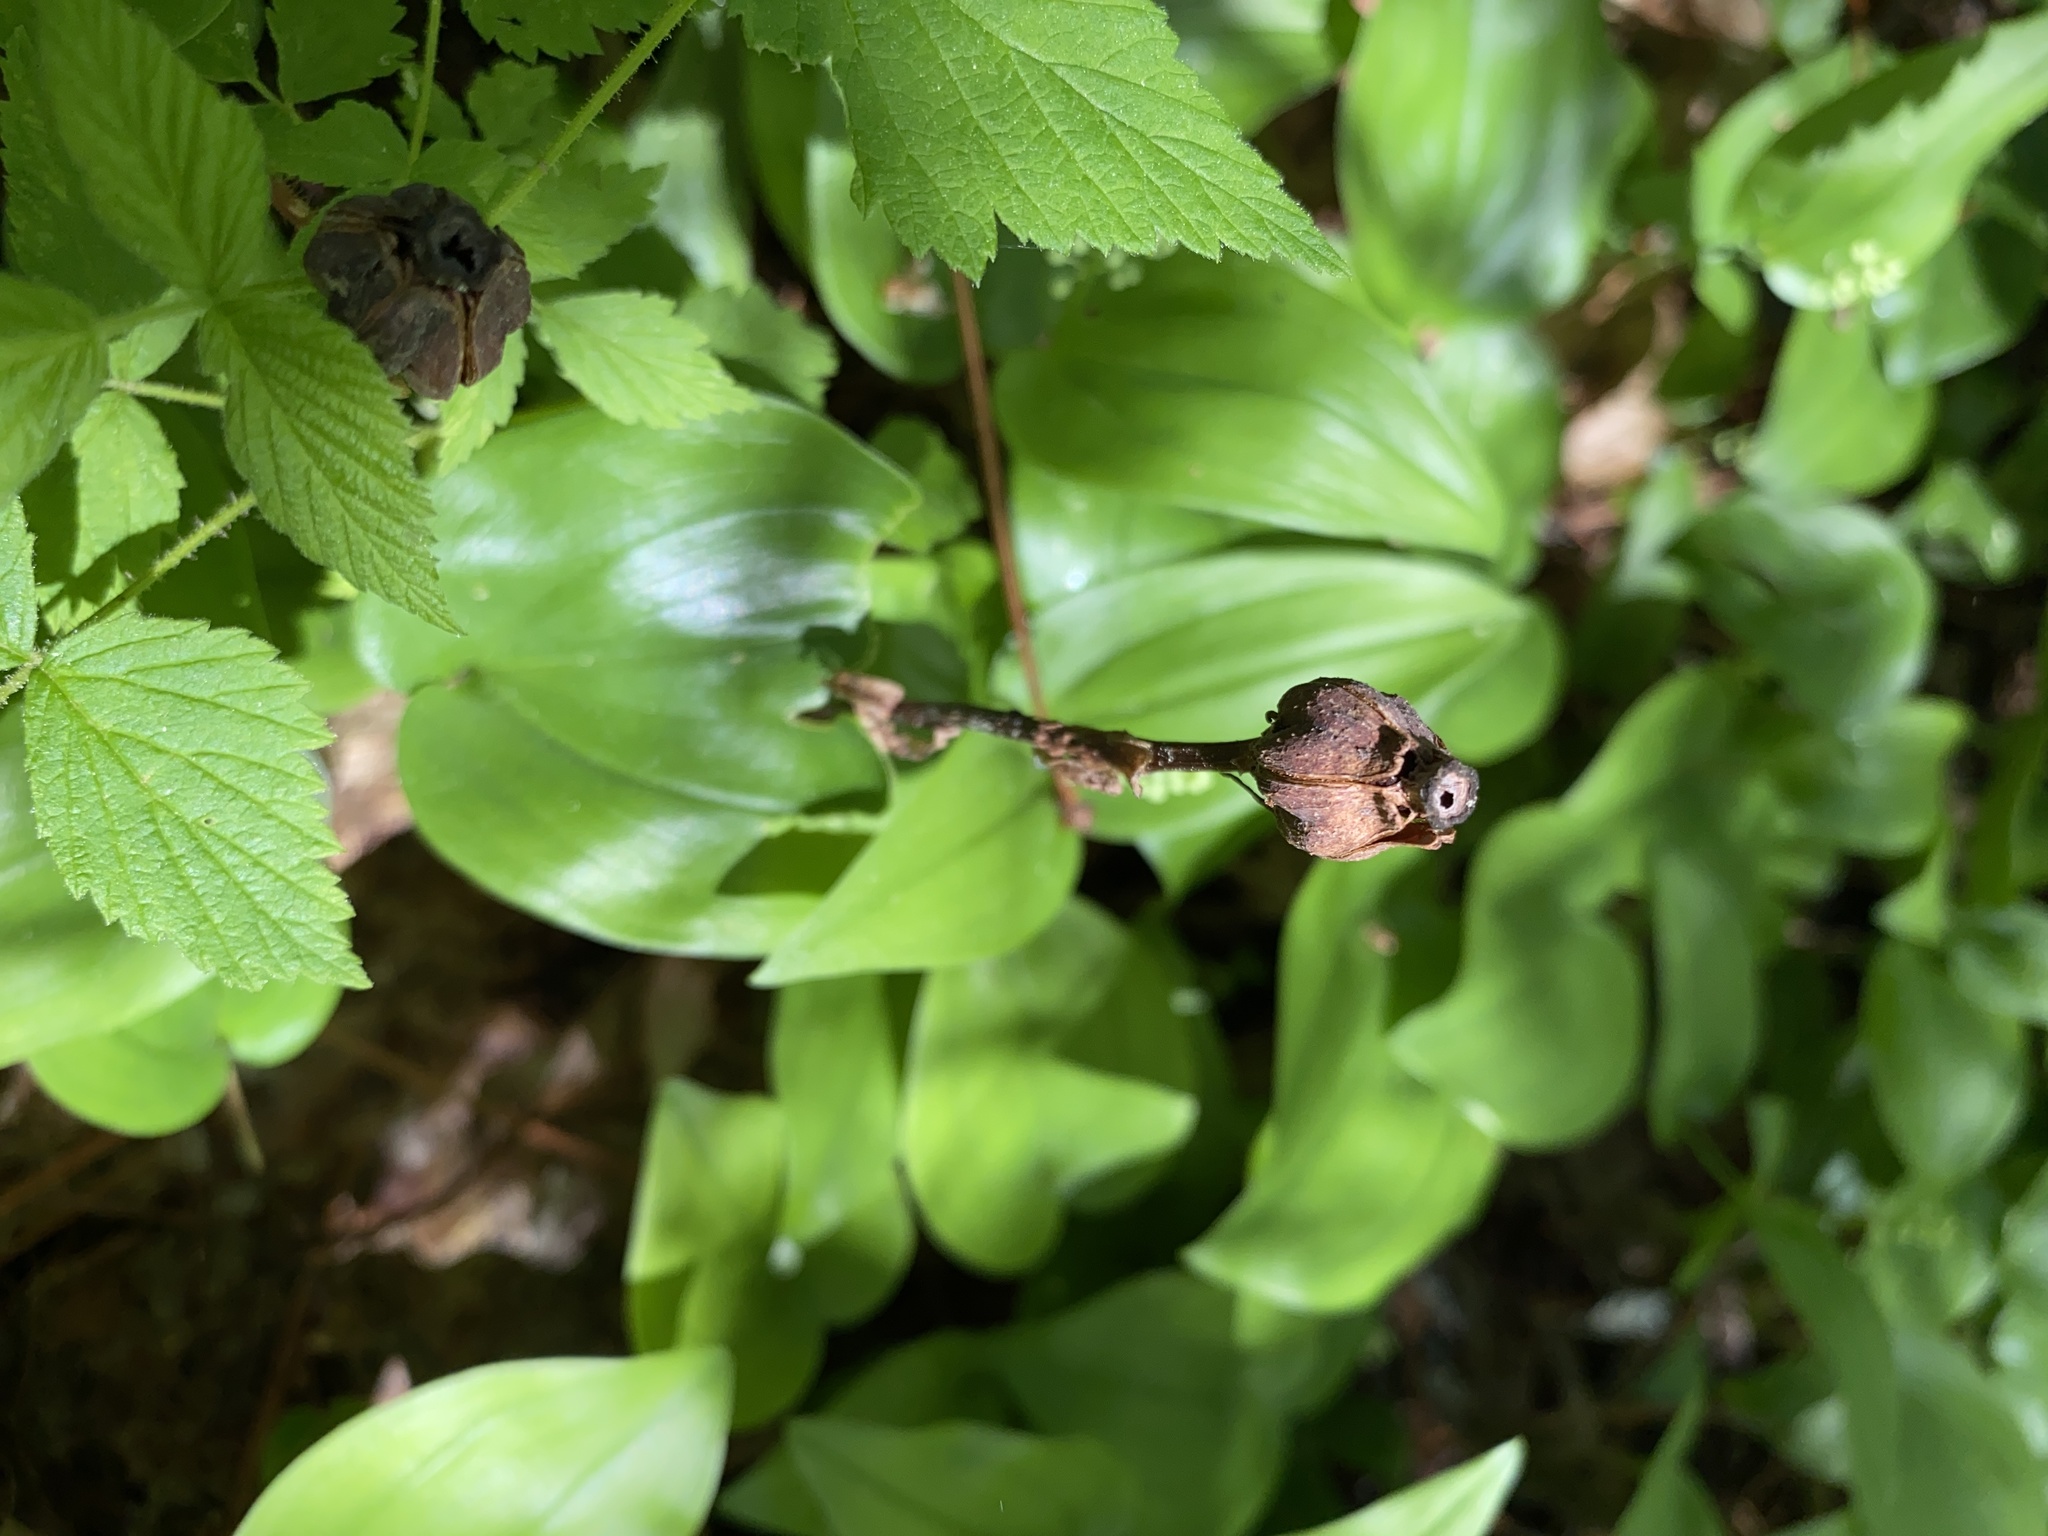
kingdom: Plantae
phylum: Tracheophyta
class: Magnoliopsida
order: Ericales
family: Ericaceae
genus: Monotropa
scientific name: Monotropa uniflora
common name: Convulsion root
